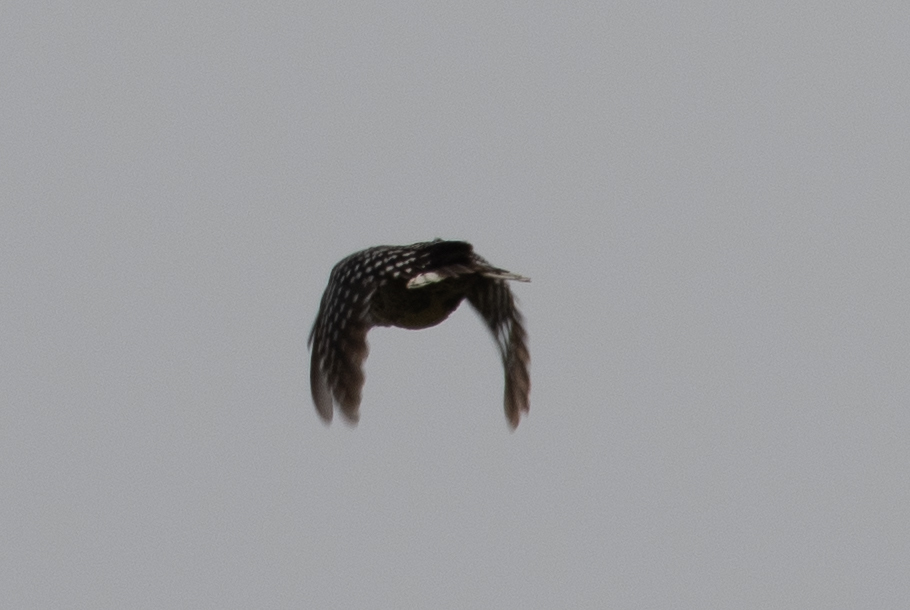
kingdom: Animalia
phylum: Chordata
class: Aves
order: Piciformes
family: Picidae
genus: Dryobates
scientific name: Dryobates nuttallii
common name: Nuttall's woodpecker
